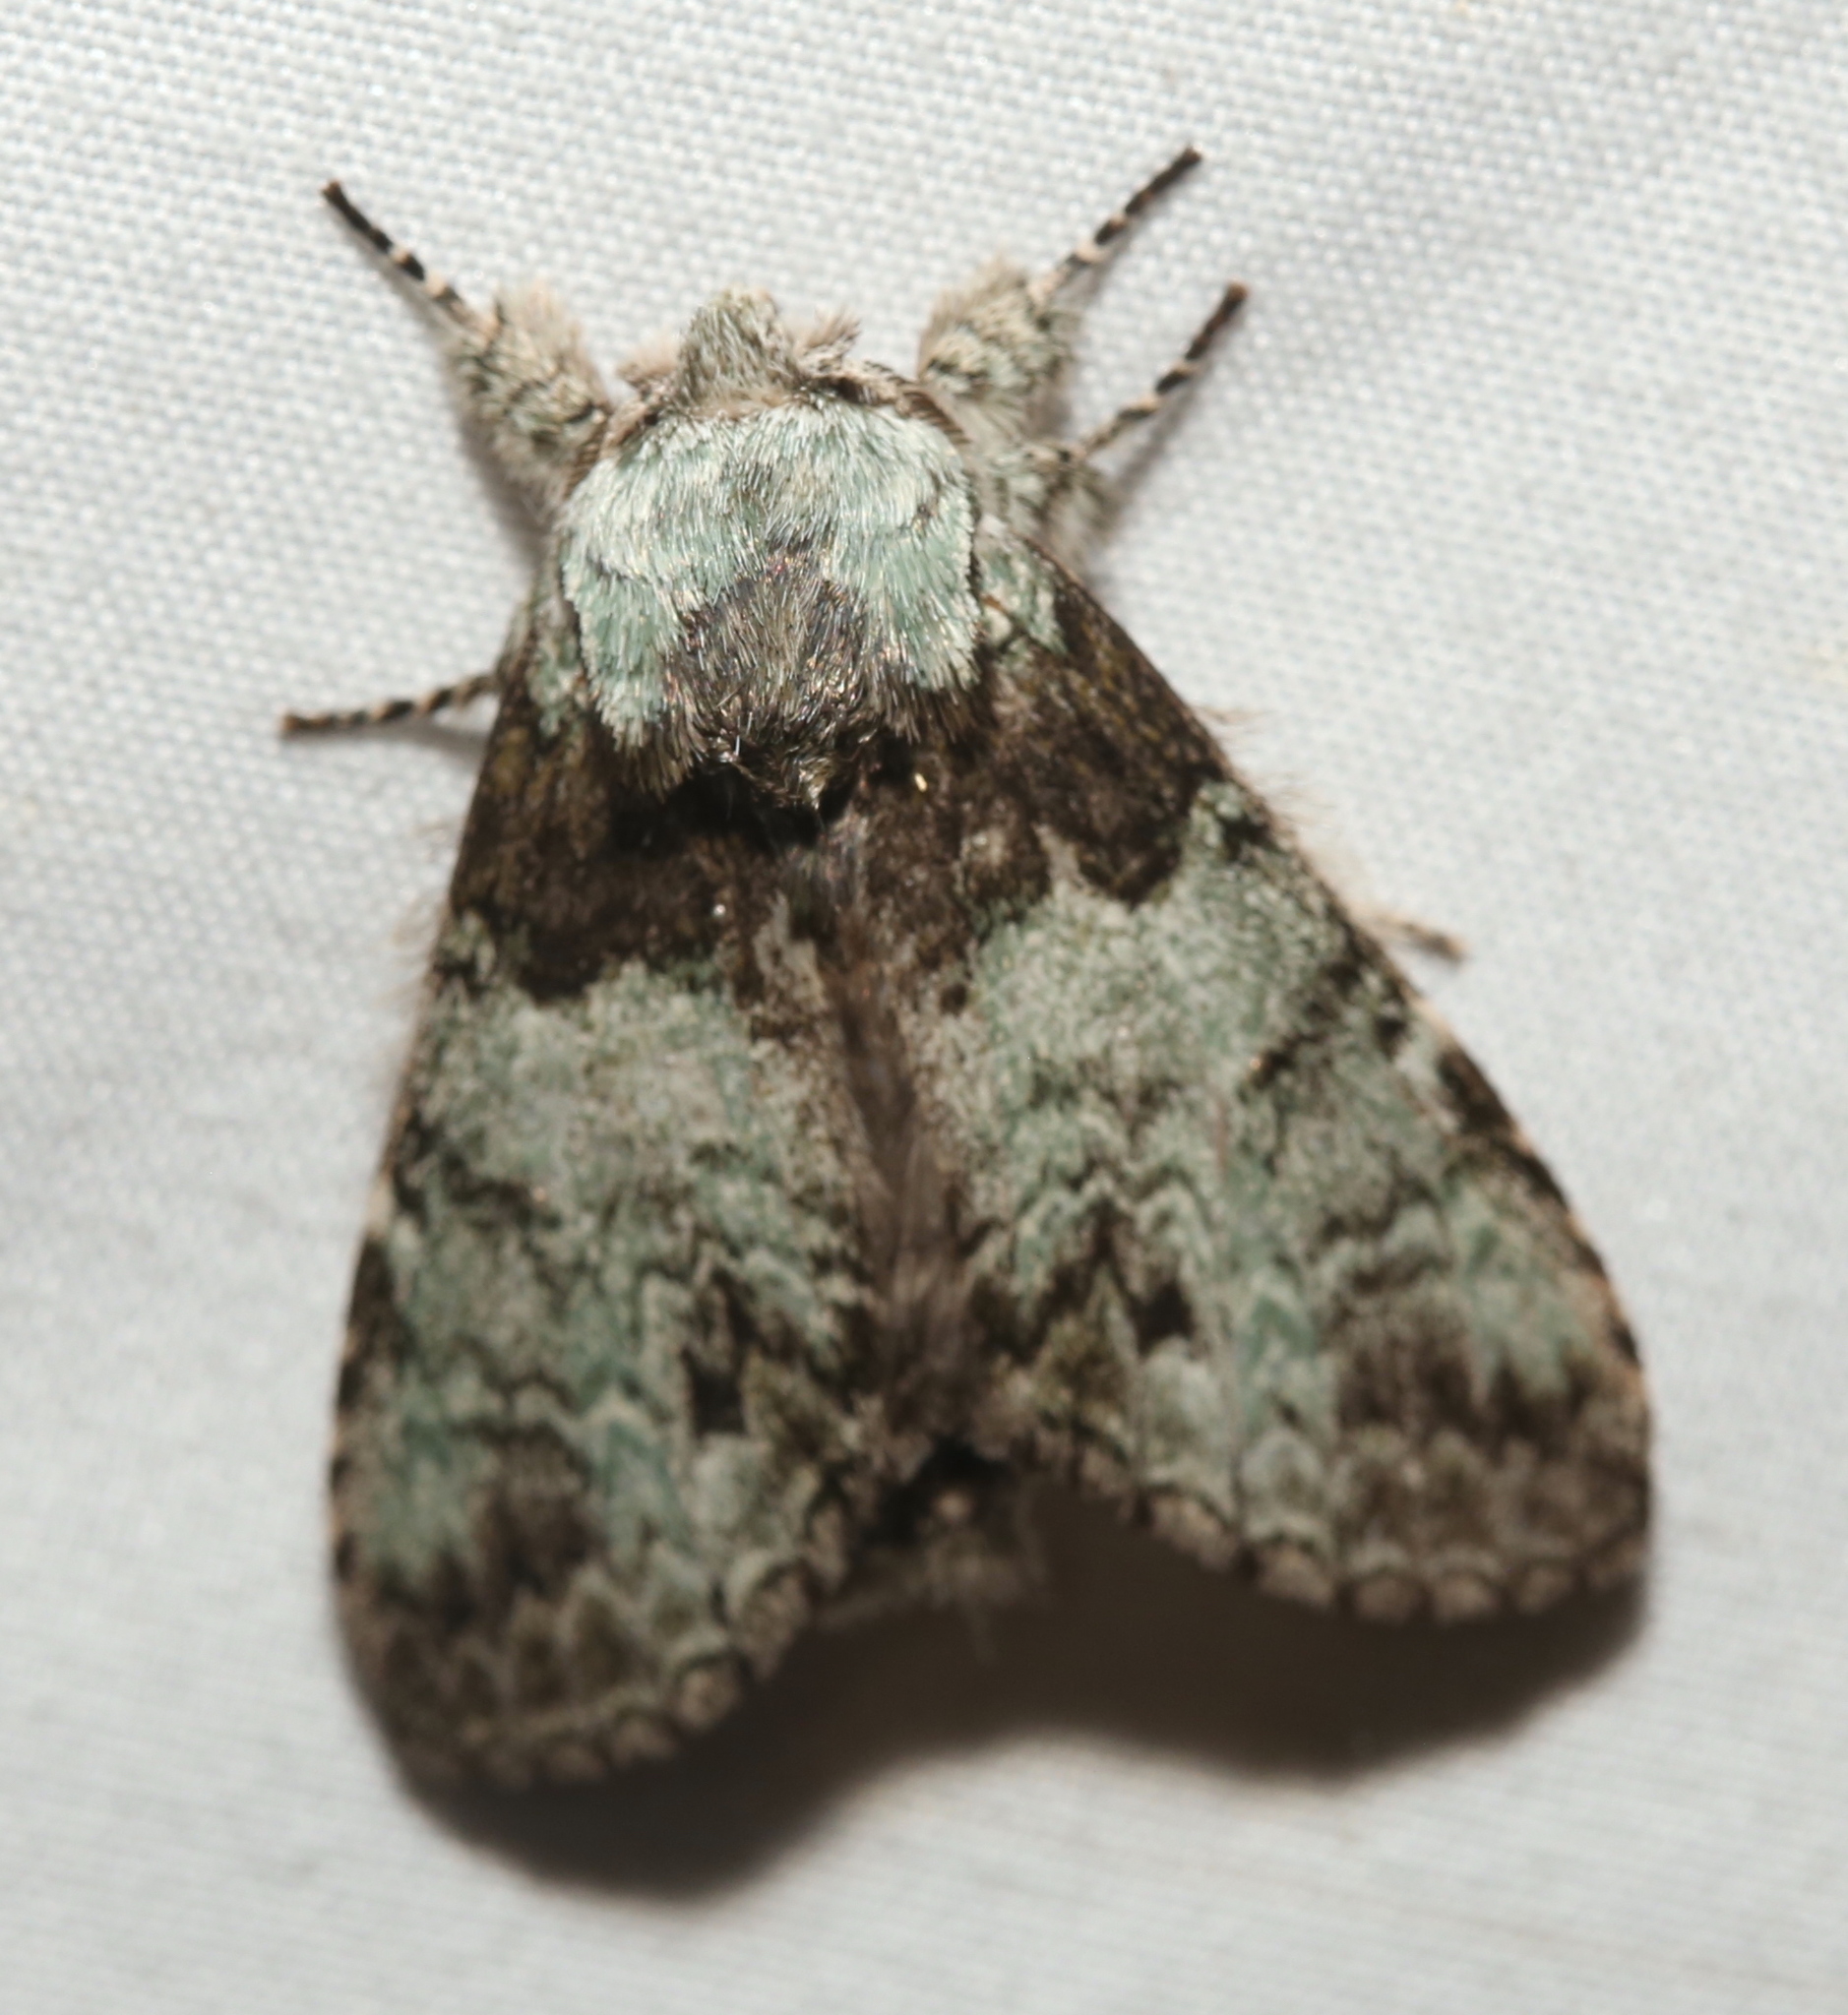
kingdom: Animalia
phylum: Arthropoda
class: Insecta
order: Lepidoptera
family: Notodontidae
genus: Macrurocampa
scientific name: Macrurocampa marthesia
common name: Mottled prominent
